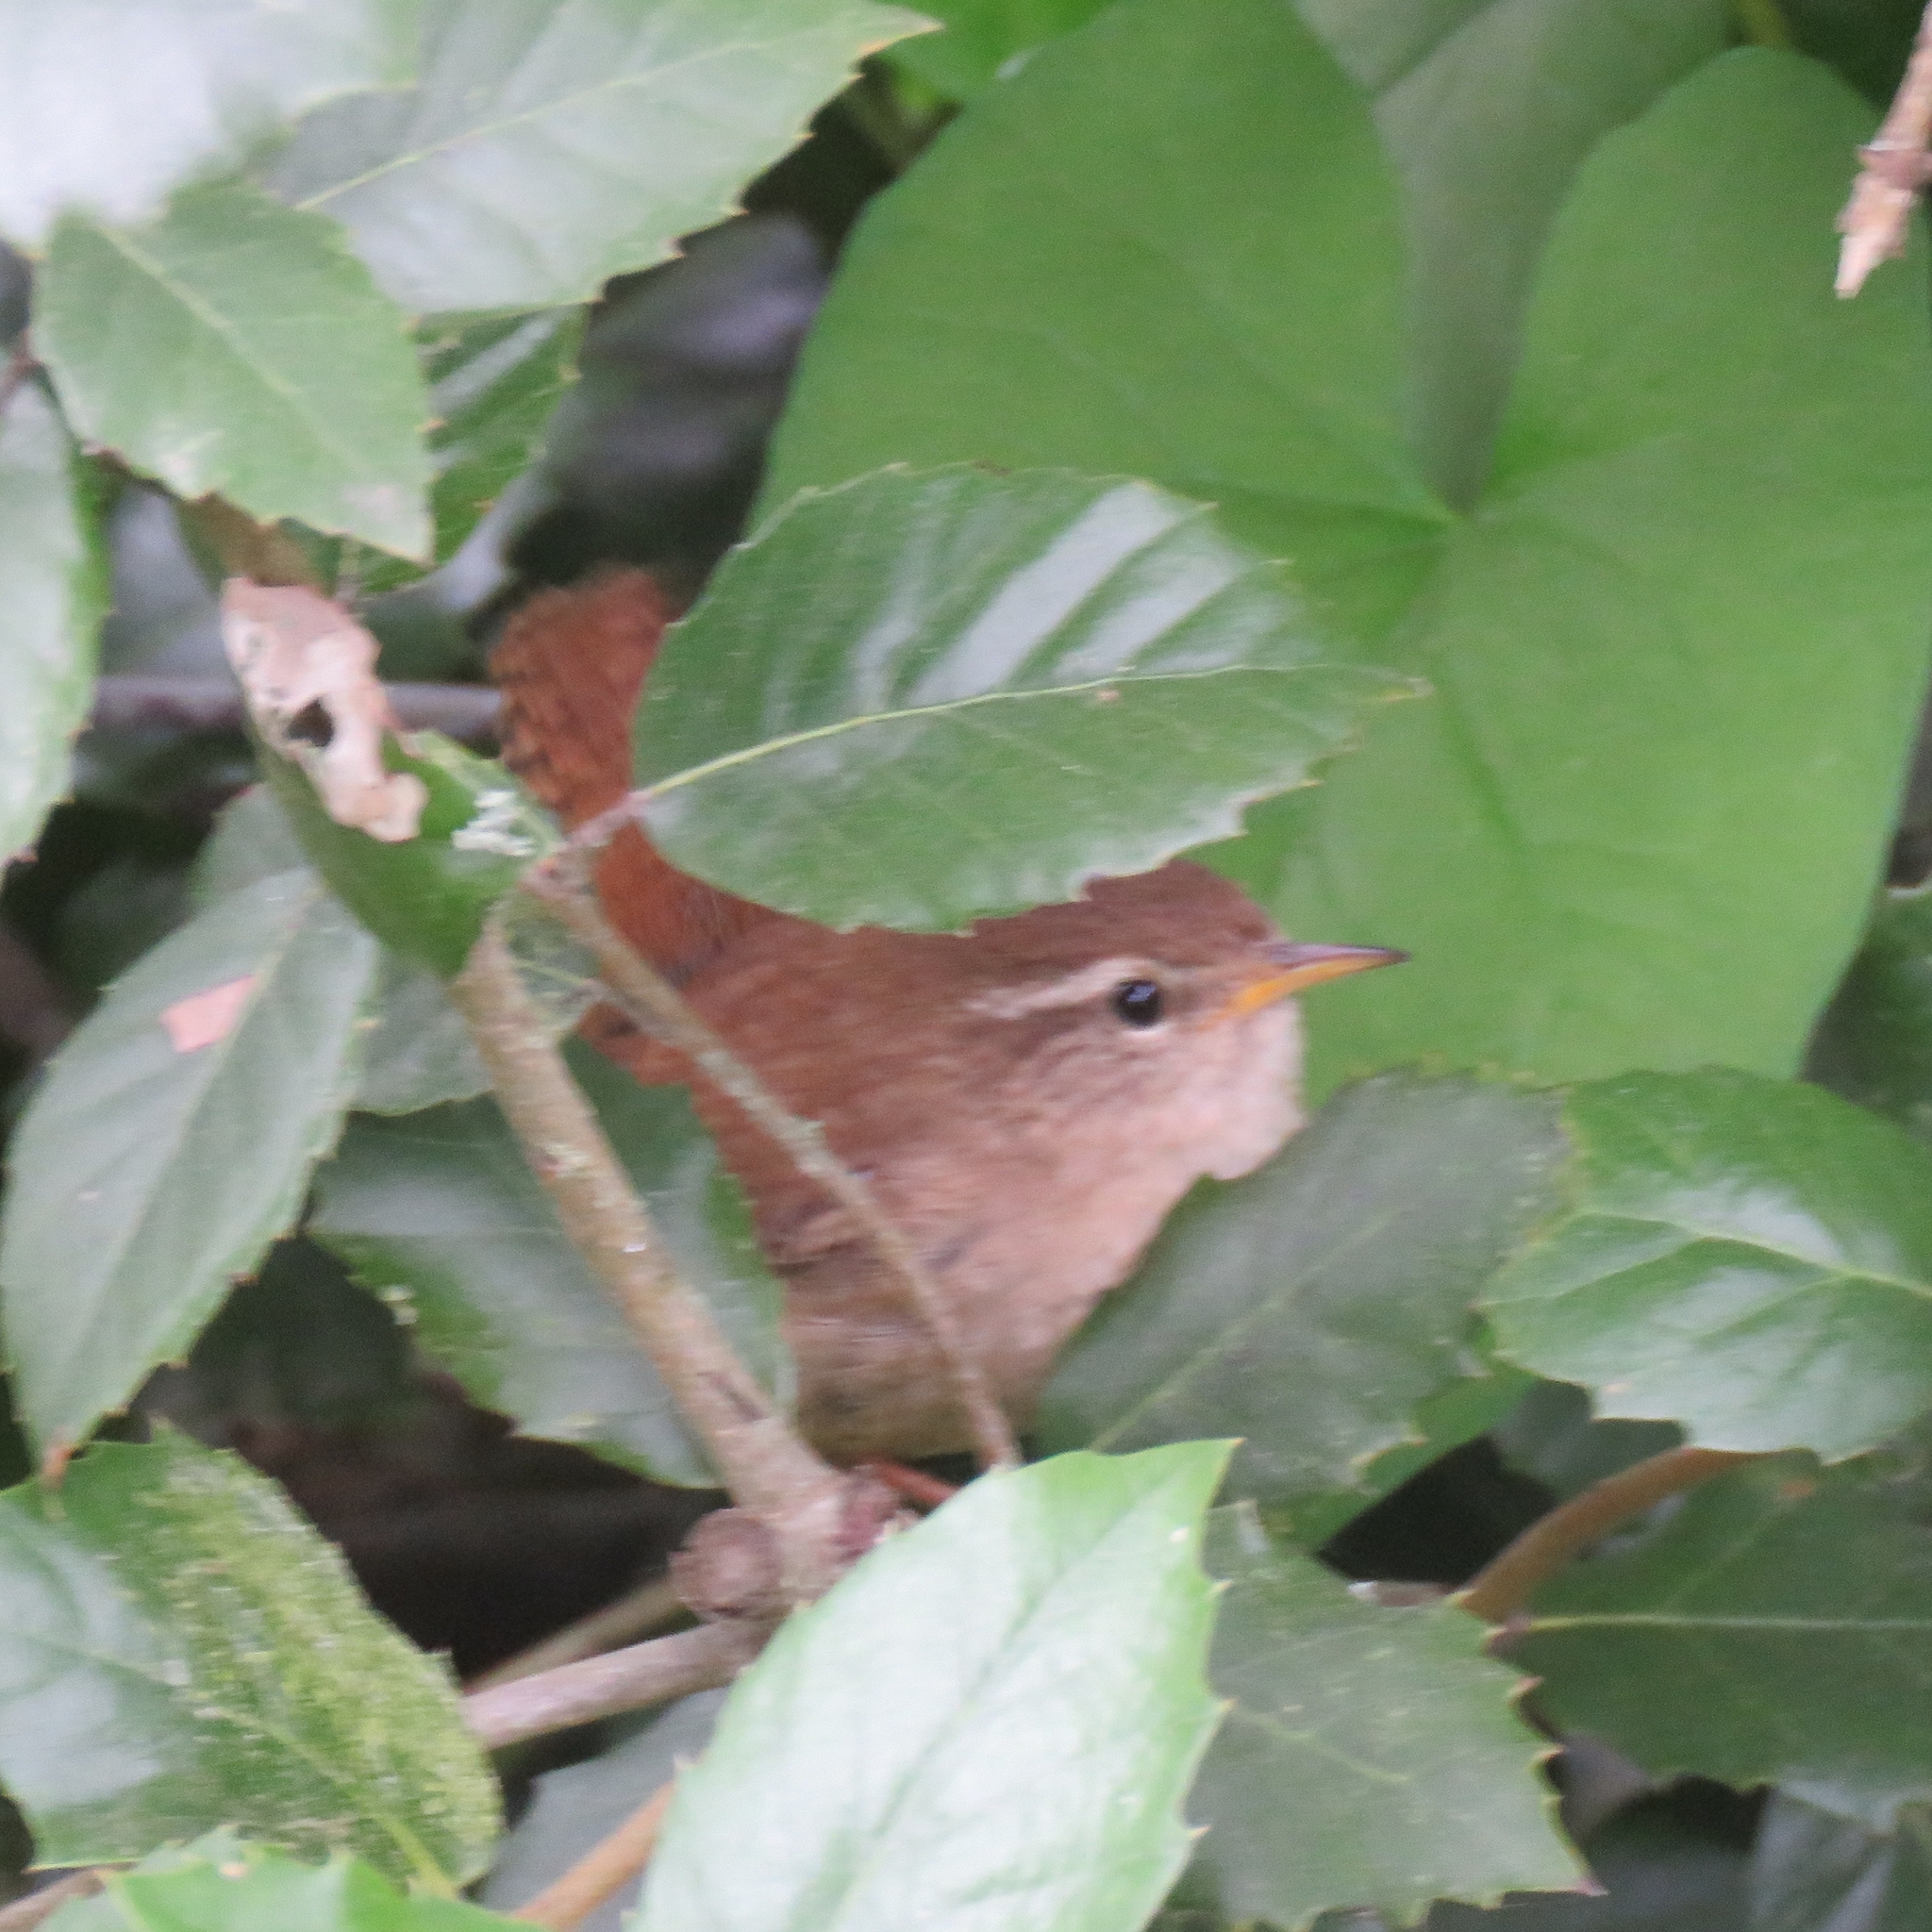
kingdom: Animalia
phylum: Chordata
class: Aves
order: Passeriformes
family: Troglodytidae
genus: Troglodytes
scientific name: Troglodytes troglodytes
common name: Eurasian wren
